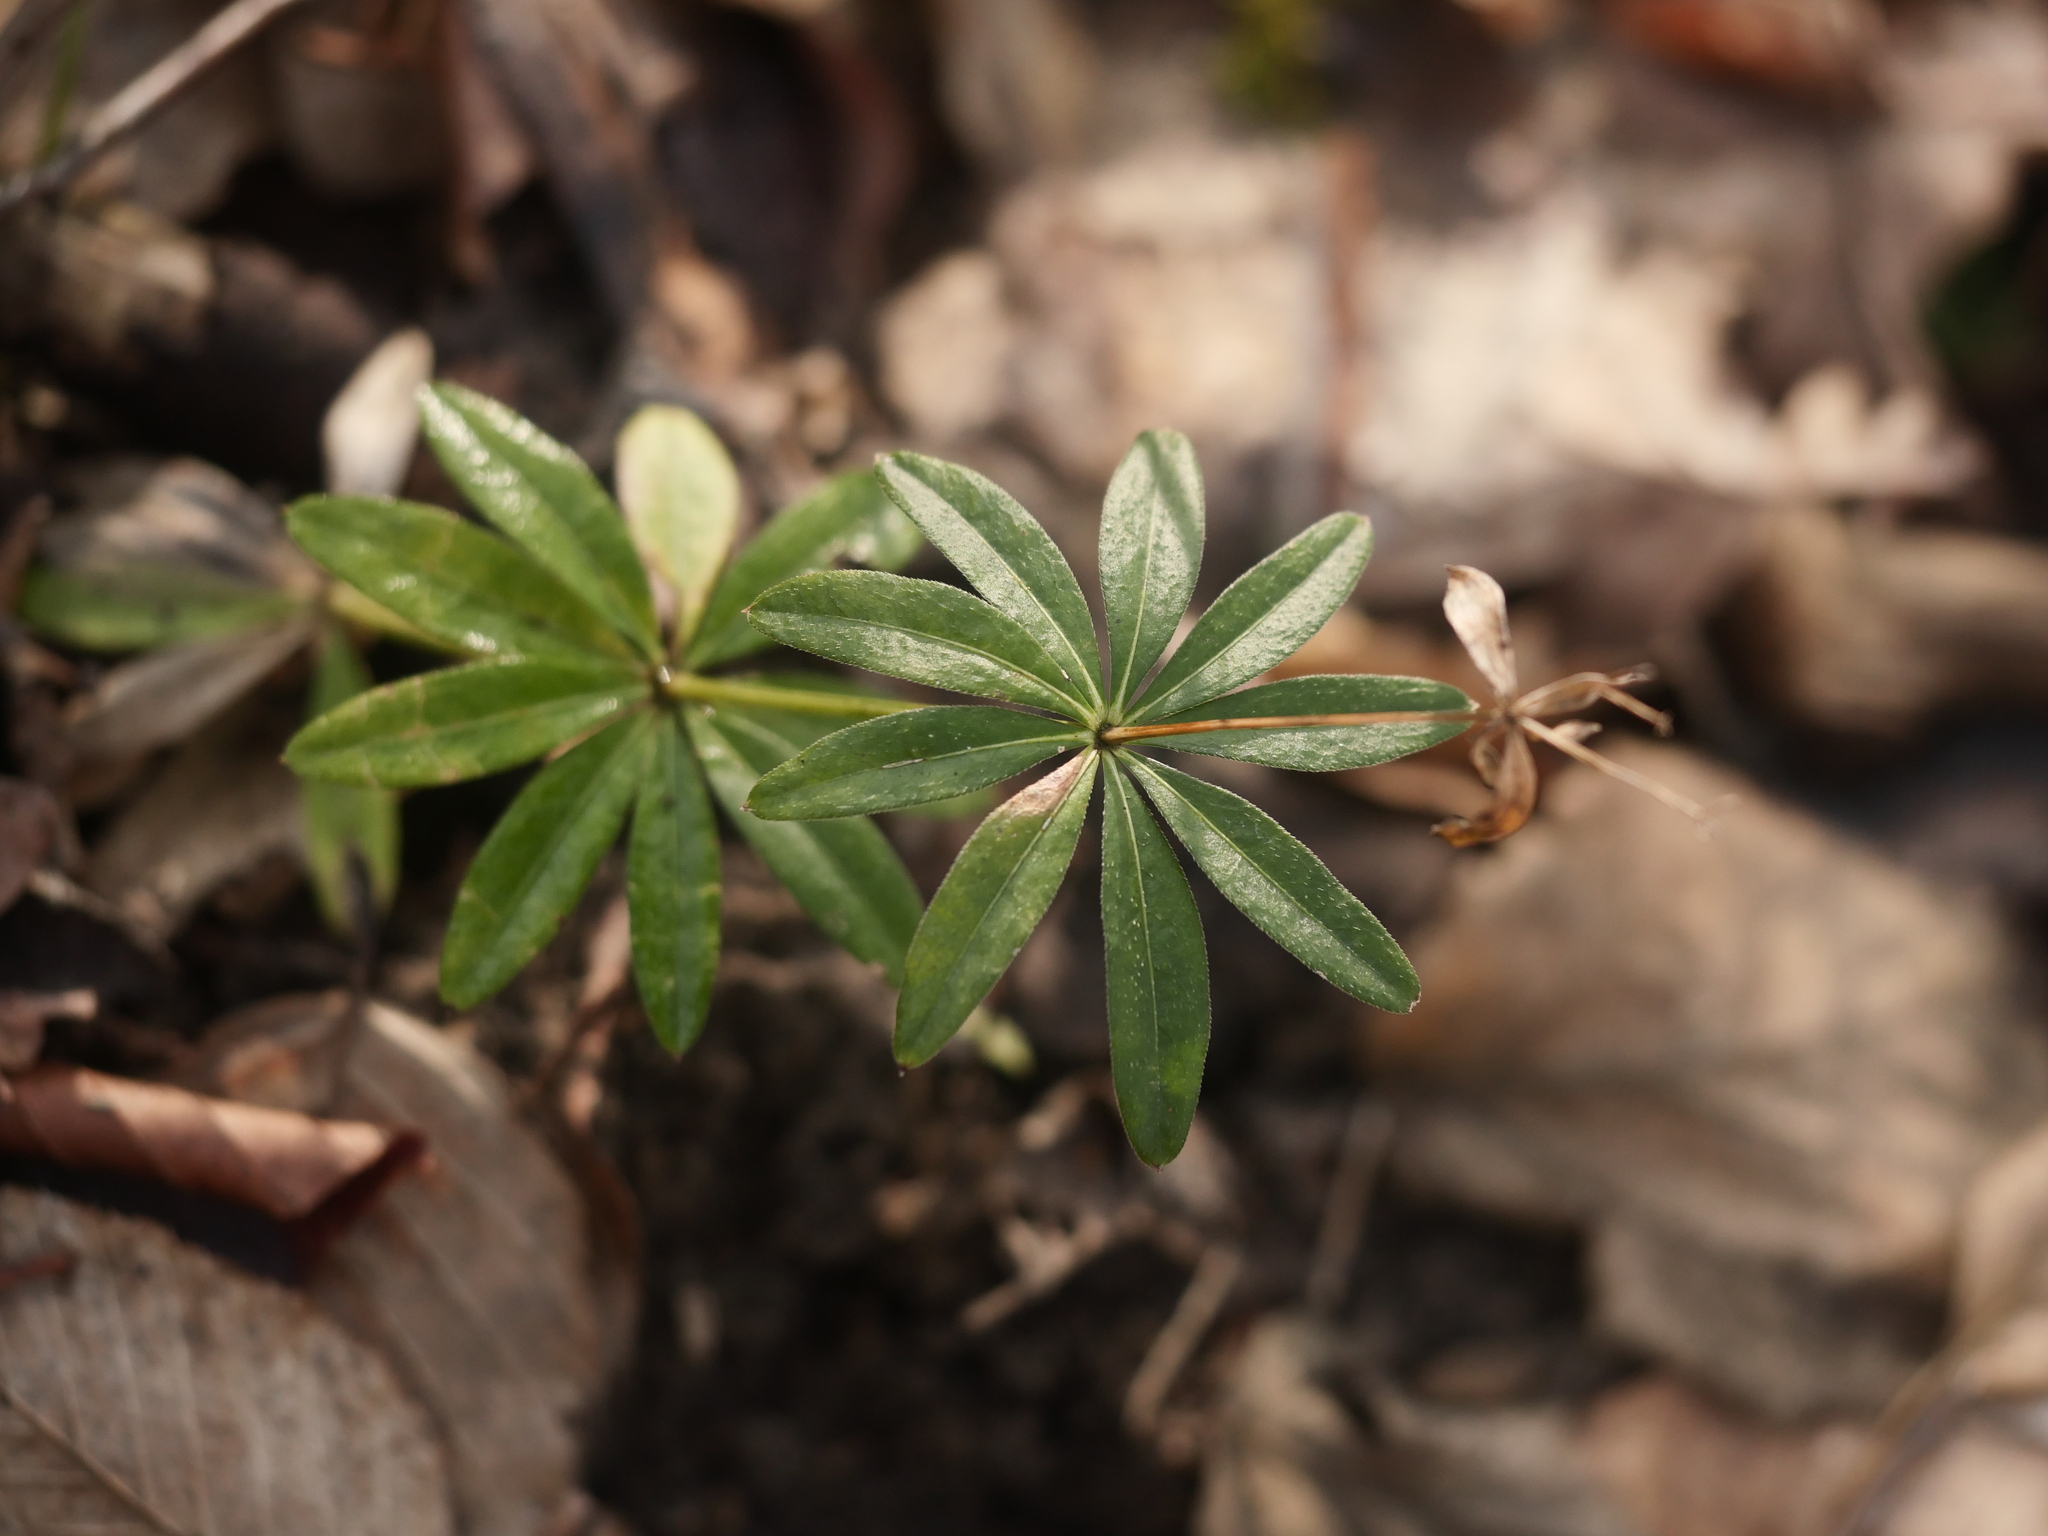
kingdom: Plantae
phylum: Tracheophyta
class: Magnoliopsida
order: Gentianales
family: Rubiaceae
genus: Galium
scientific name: Galium odoratum
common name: Sweet woodruff
